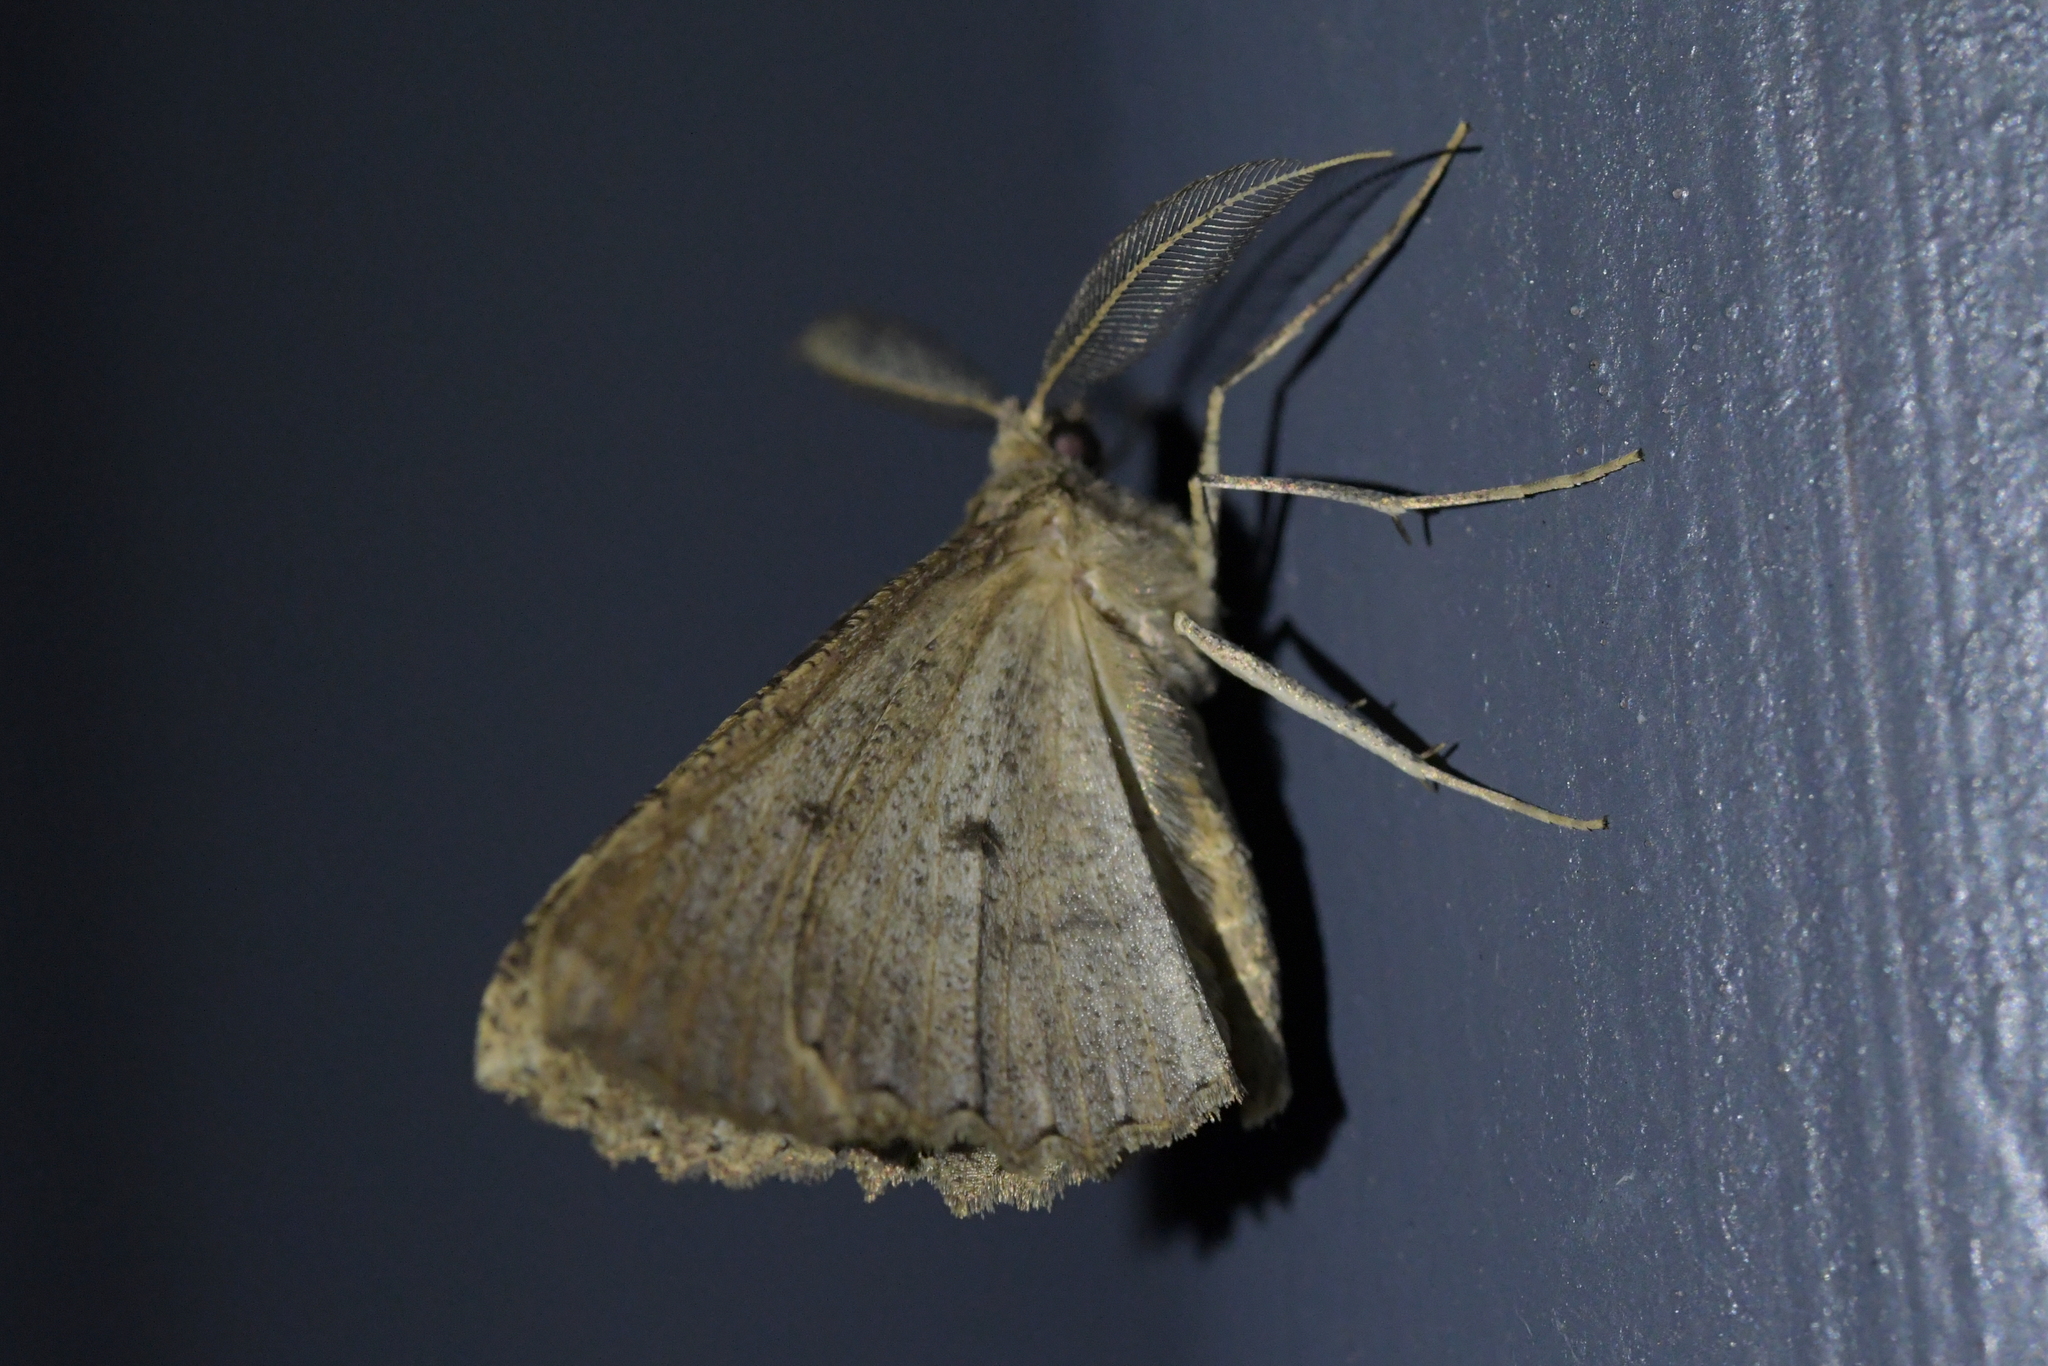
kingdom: Animalia
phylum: Arthropoda
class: Insecta
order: Lepidoptera
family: Geometridae
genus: Cleora
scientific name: Cleora scriptaria
